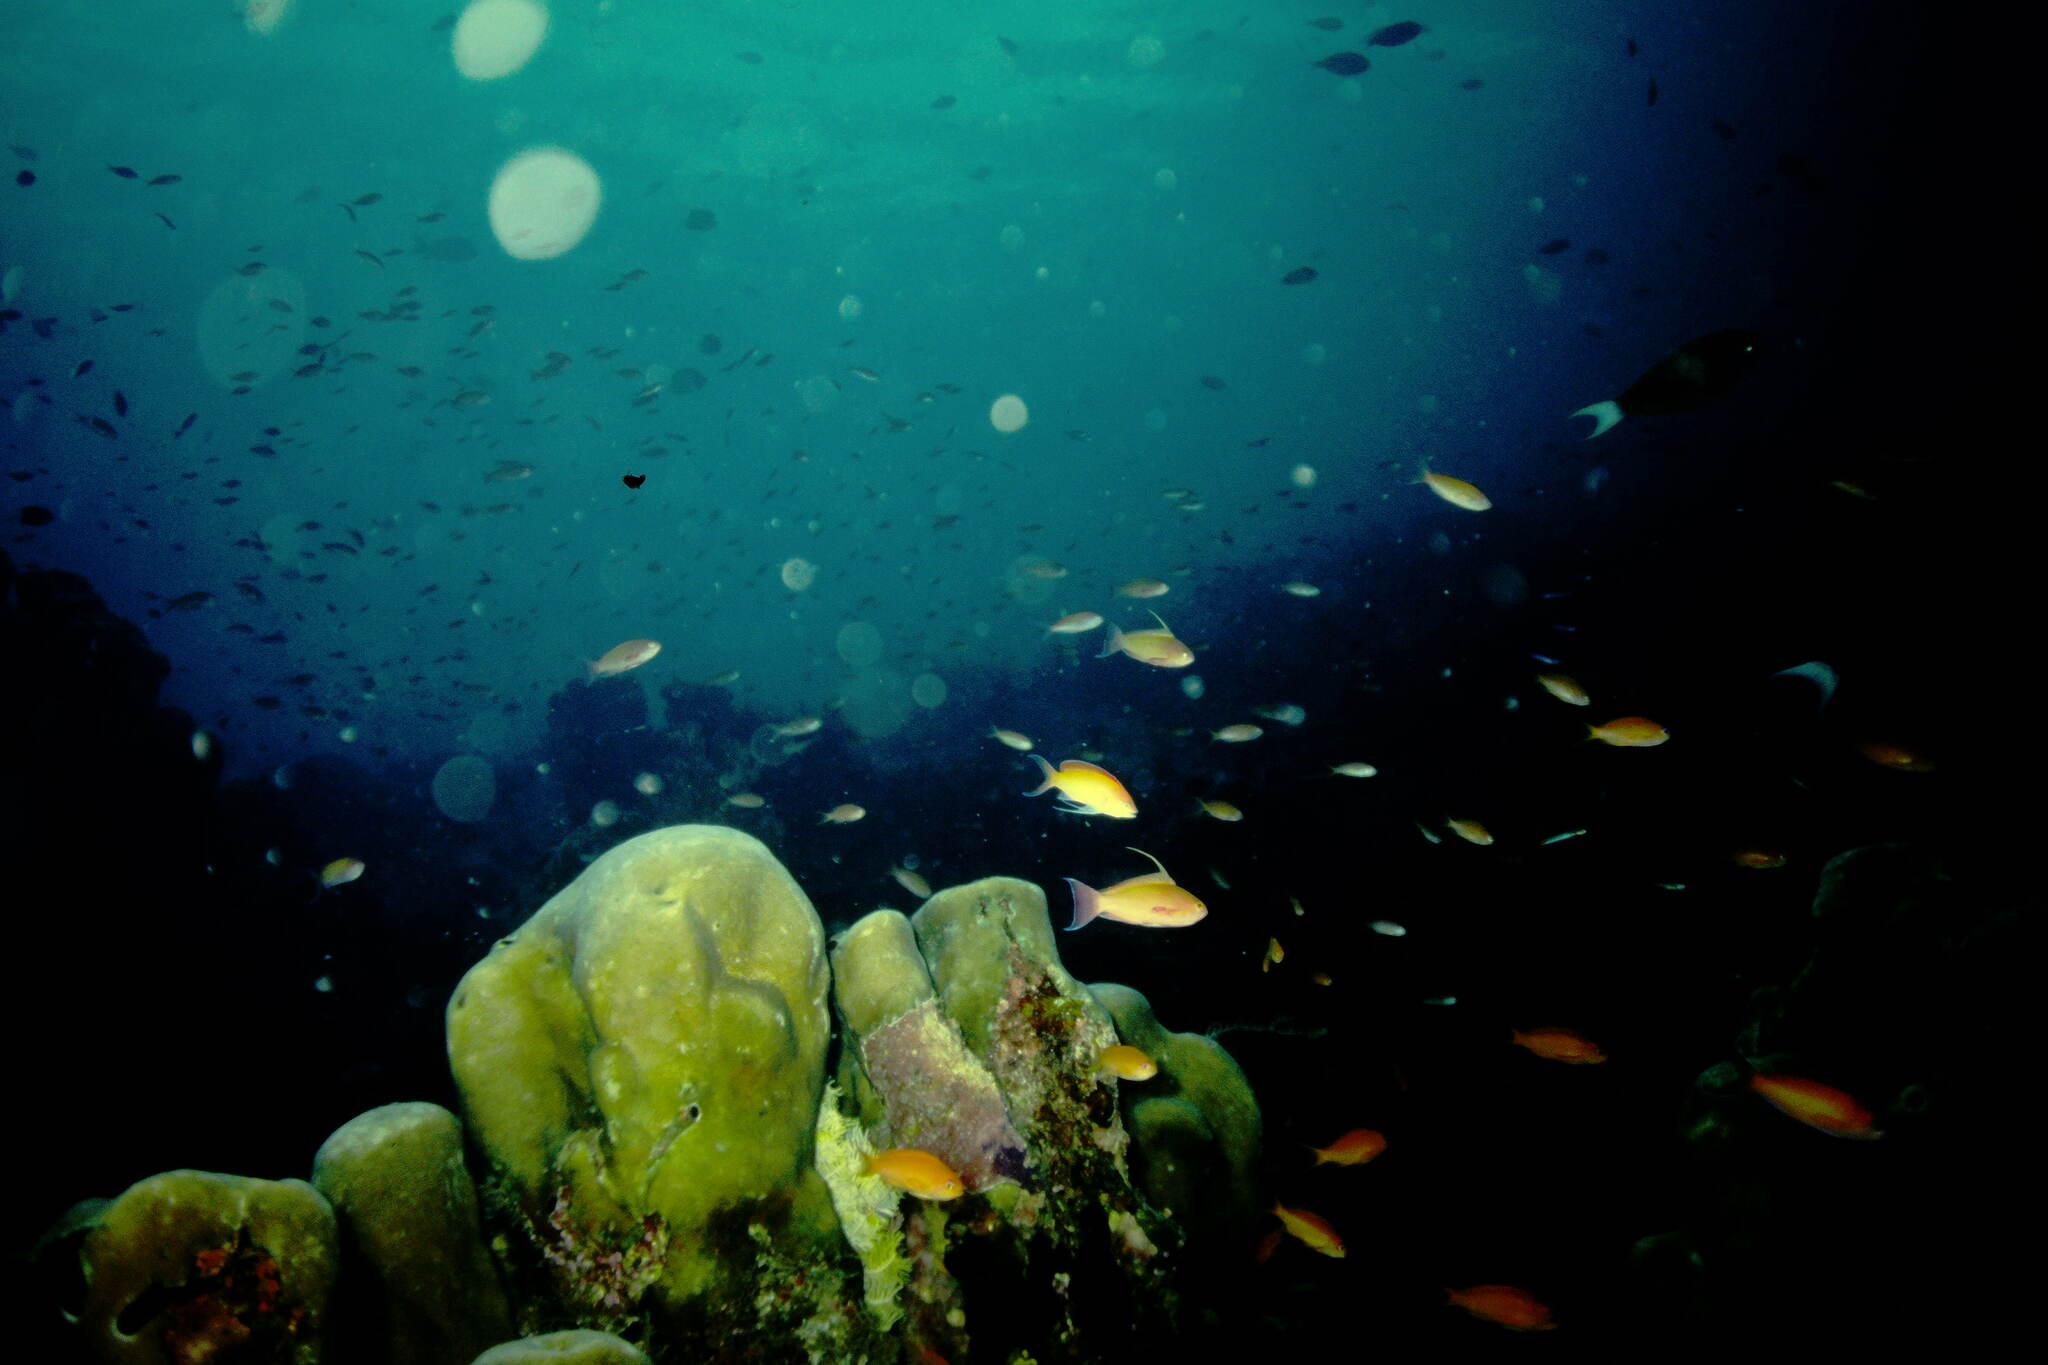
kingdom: Animalia
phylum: Chordata
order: Perciformes
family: Serranidae
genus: Pseudanthias
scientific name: Pseudanthias squamipinnis
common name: Scalefin anthias
